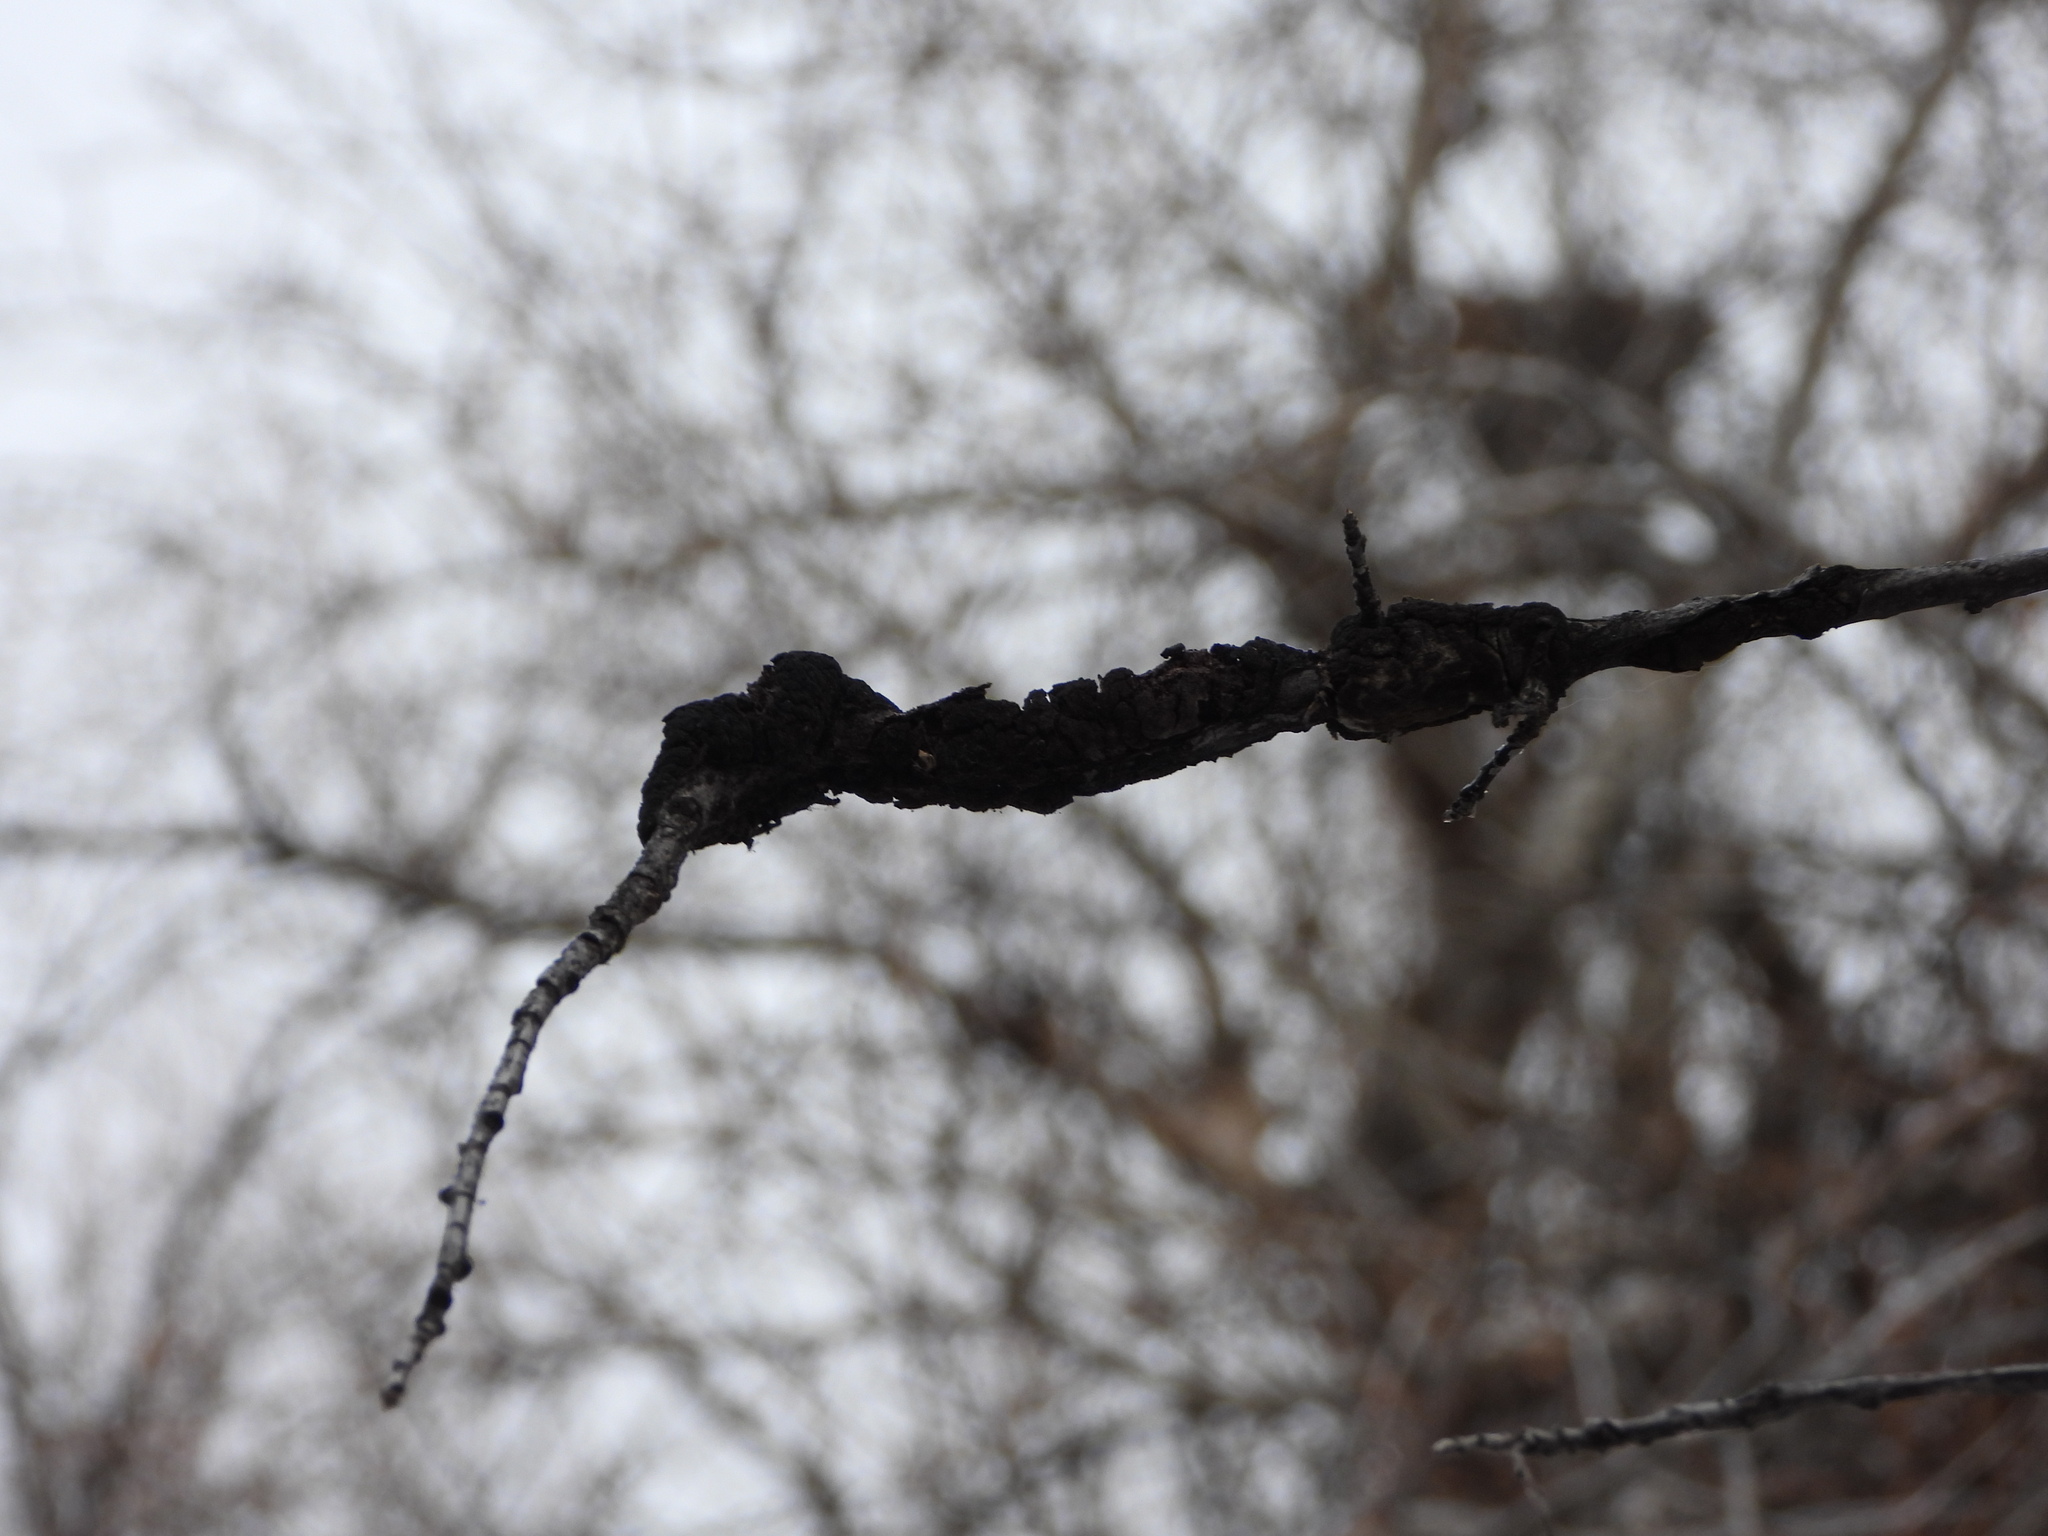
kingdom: Fungi
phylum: Ascomycota
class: Dothideomycetes
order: Venturiales
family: Venturiaceae
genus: Apiosporina
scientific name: Apiosporina morbosa
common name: Black knot
